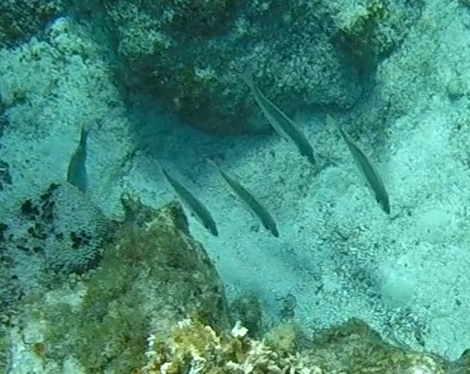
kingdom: Animalia
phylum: Chordata
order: Perciformes
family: Lutjanidae
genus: Lutjanus
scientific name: Lutjanus mahogoni
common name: Spot snapper
